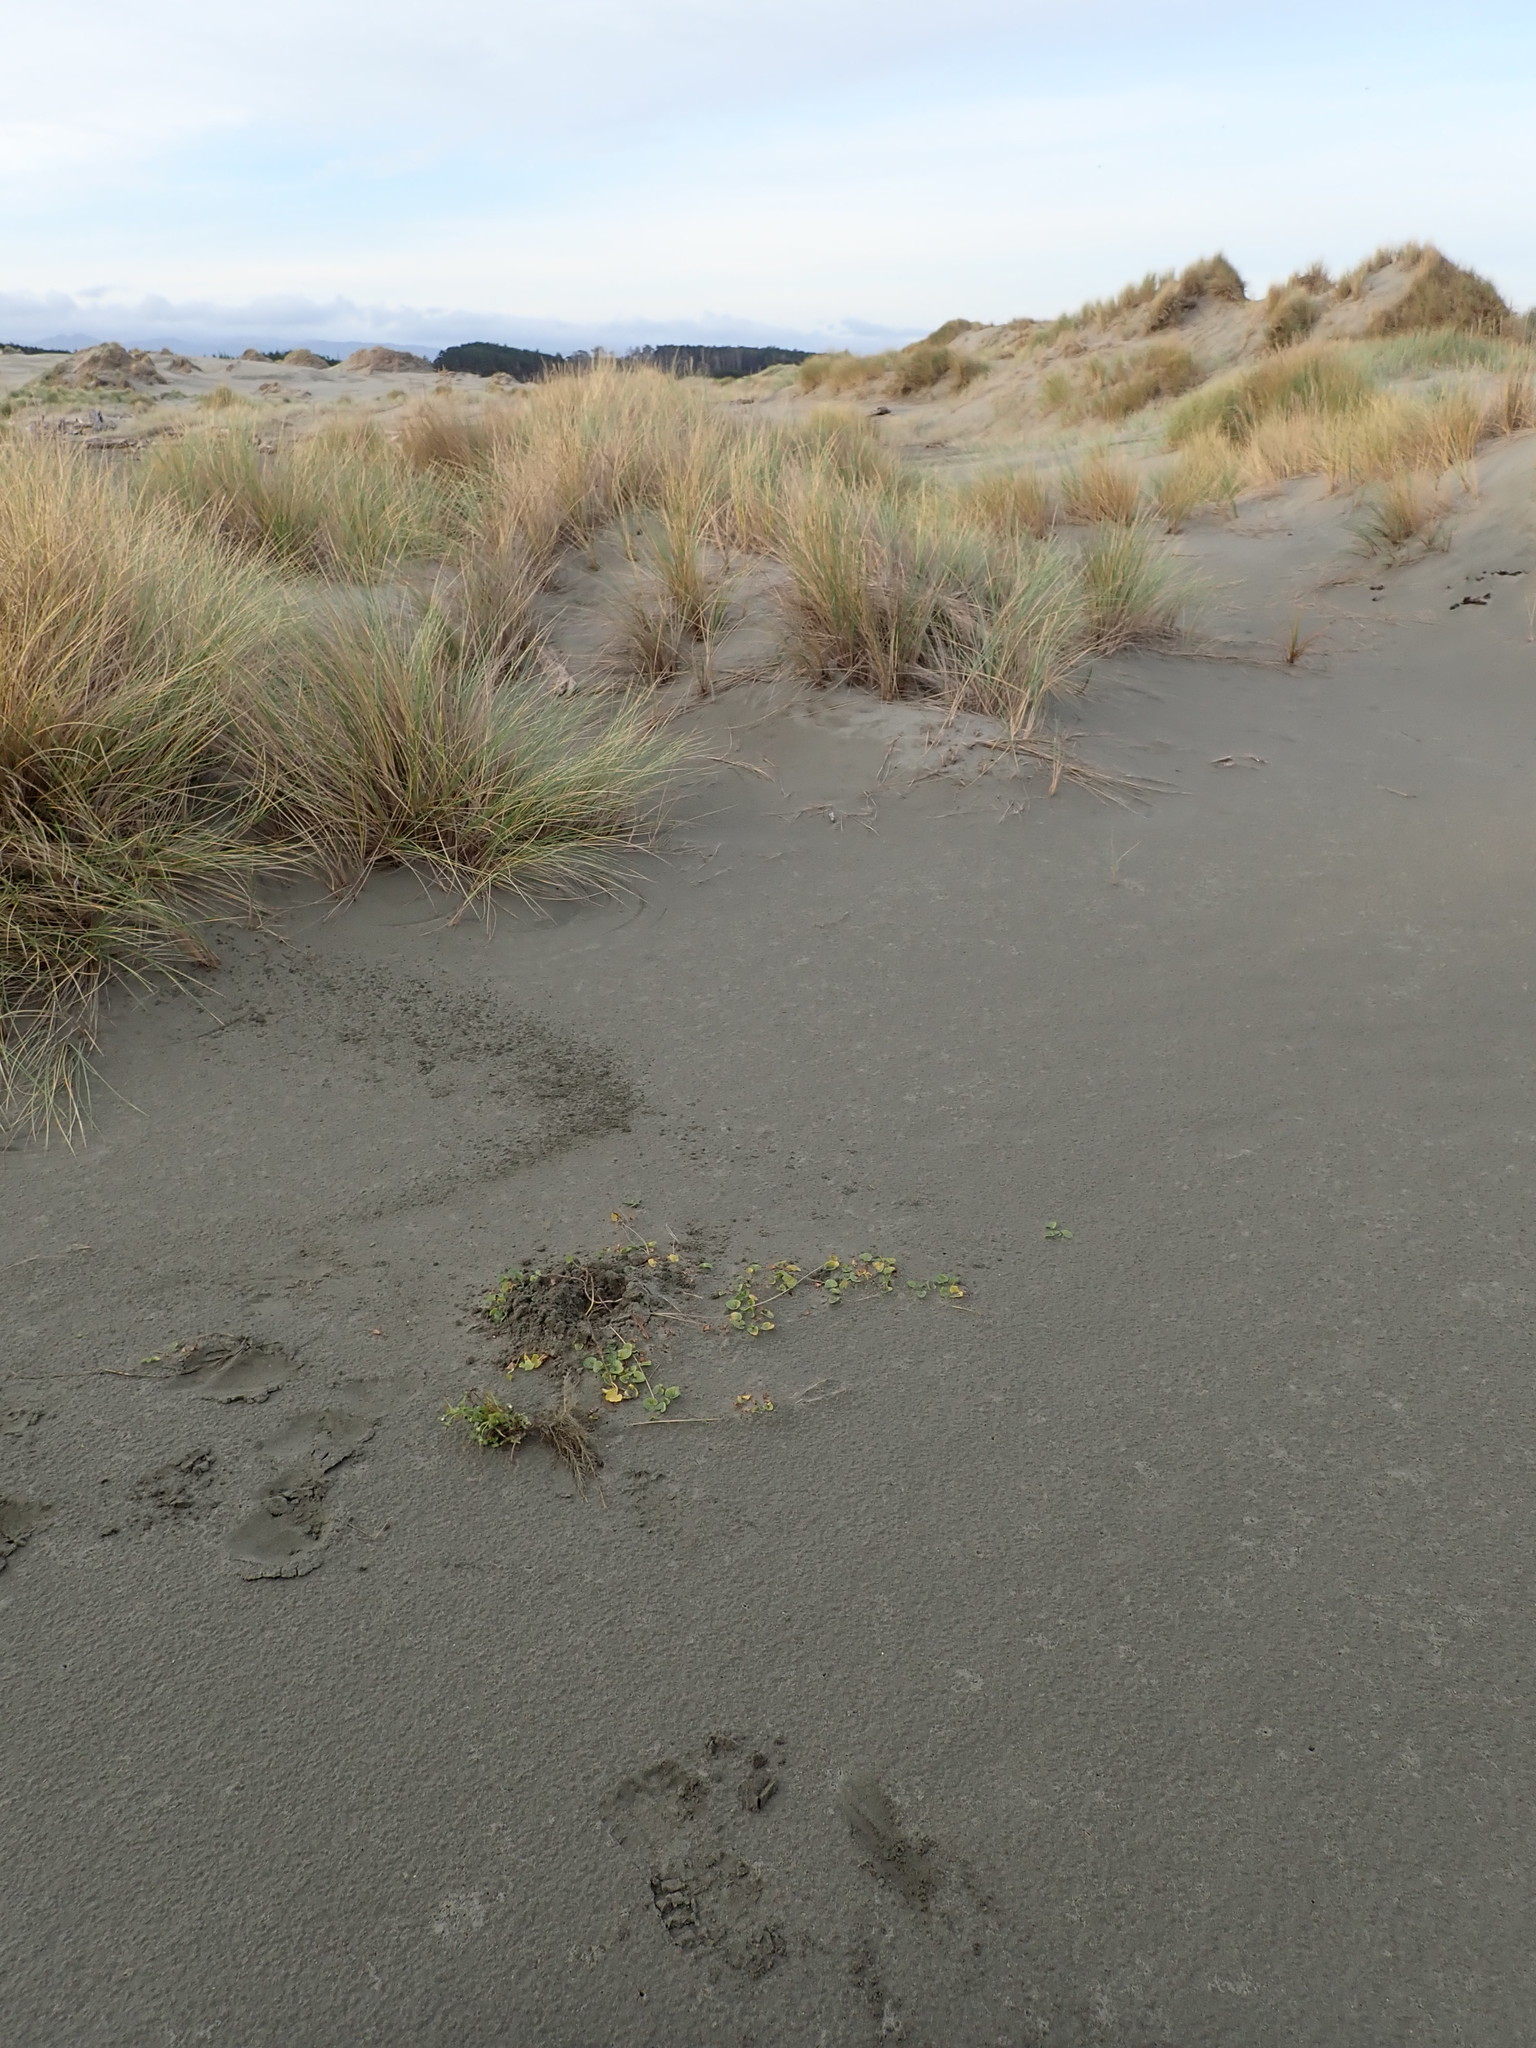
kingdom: Plantae
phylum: Tracheophyta
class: Magnoliopsida
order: Asterales
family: Asteraceae
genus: Sonchus
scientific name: Sonchus oleraceus
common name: Common sowthistle
